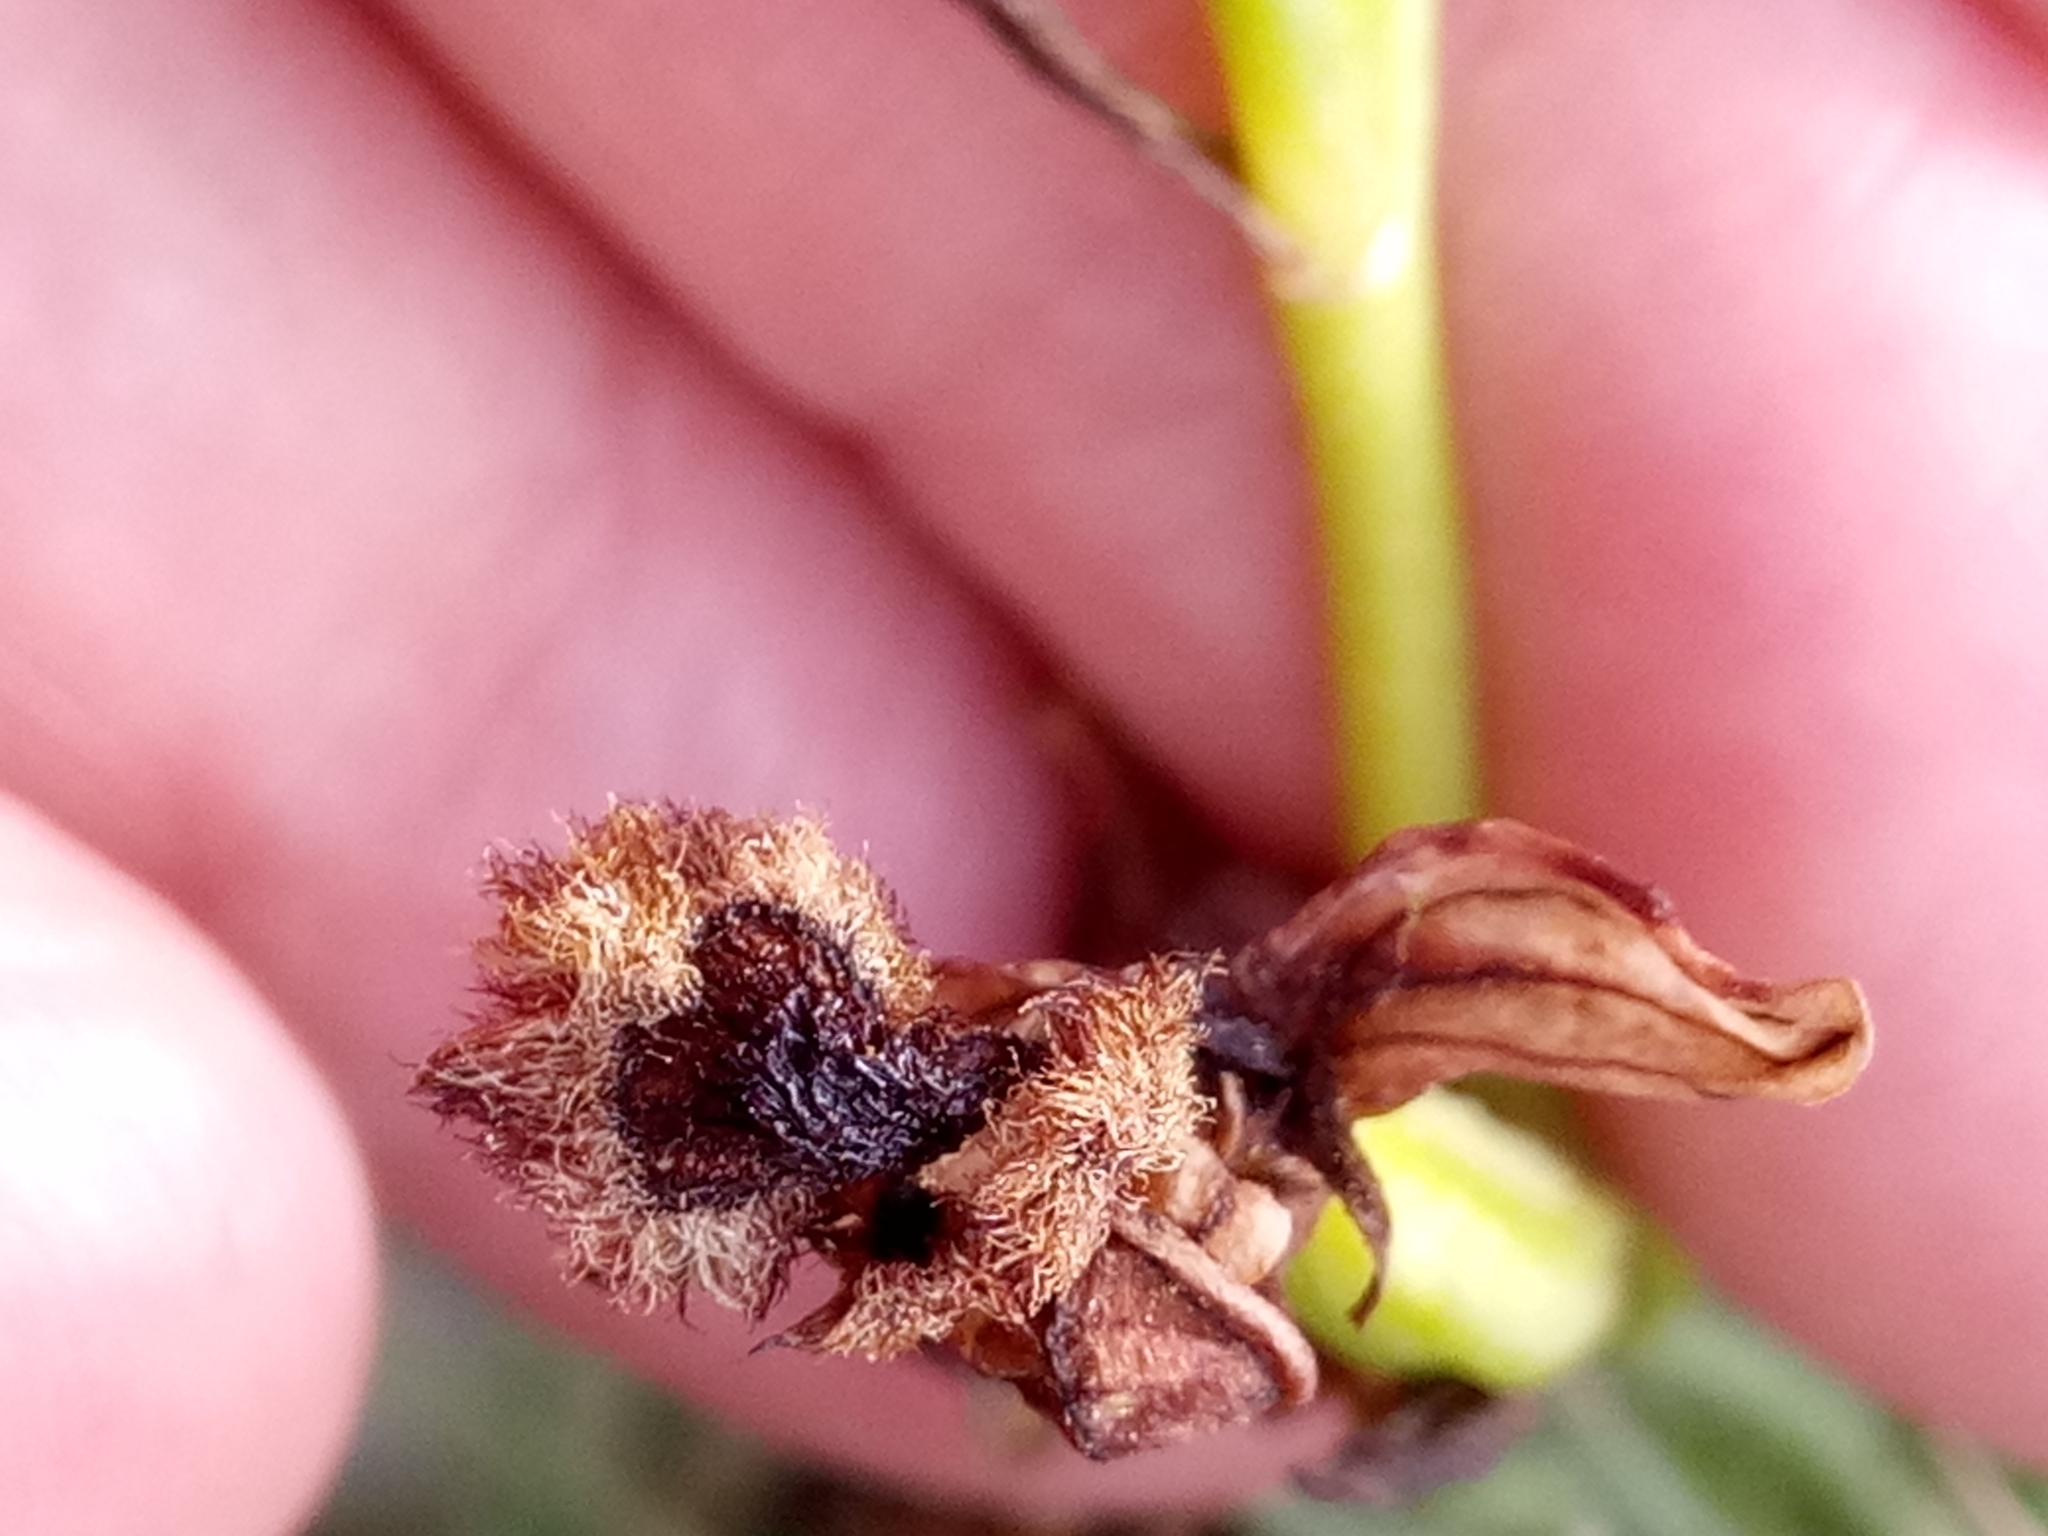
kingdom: Plantae
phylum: Tracheophyta
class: Liliopsida
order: Asparagales
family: Orchidaceae
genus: Ophrys
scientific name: Ophrys speculum
